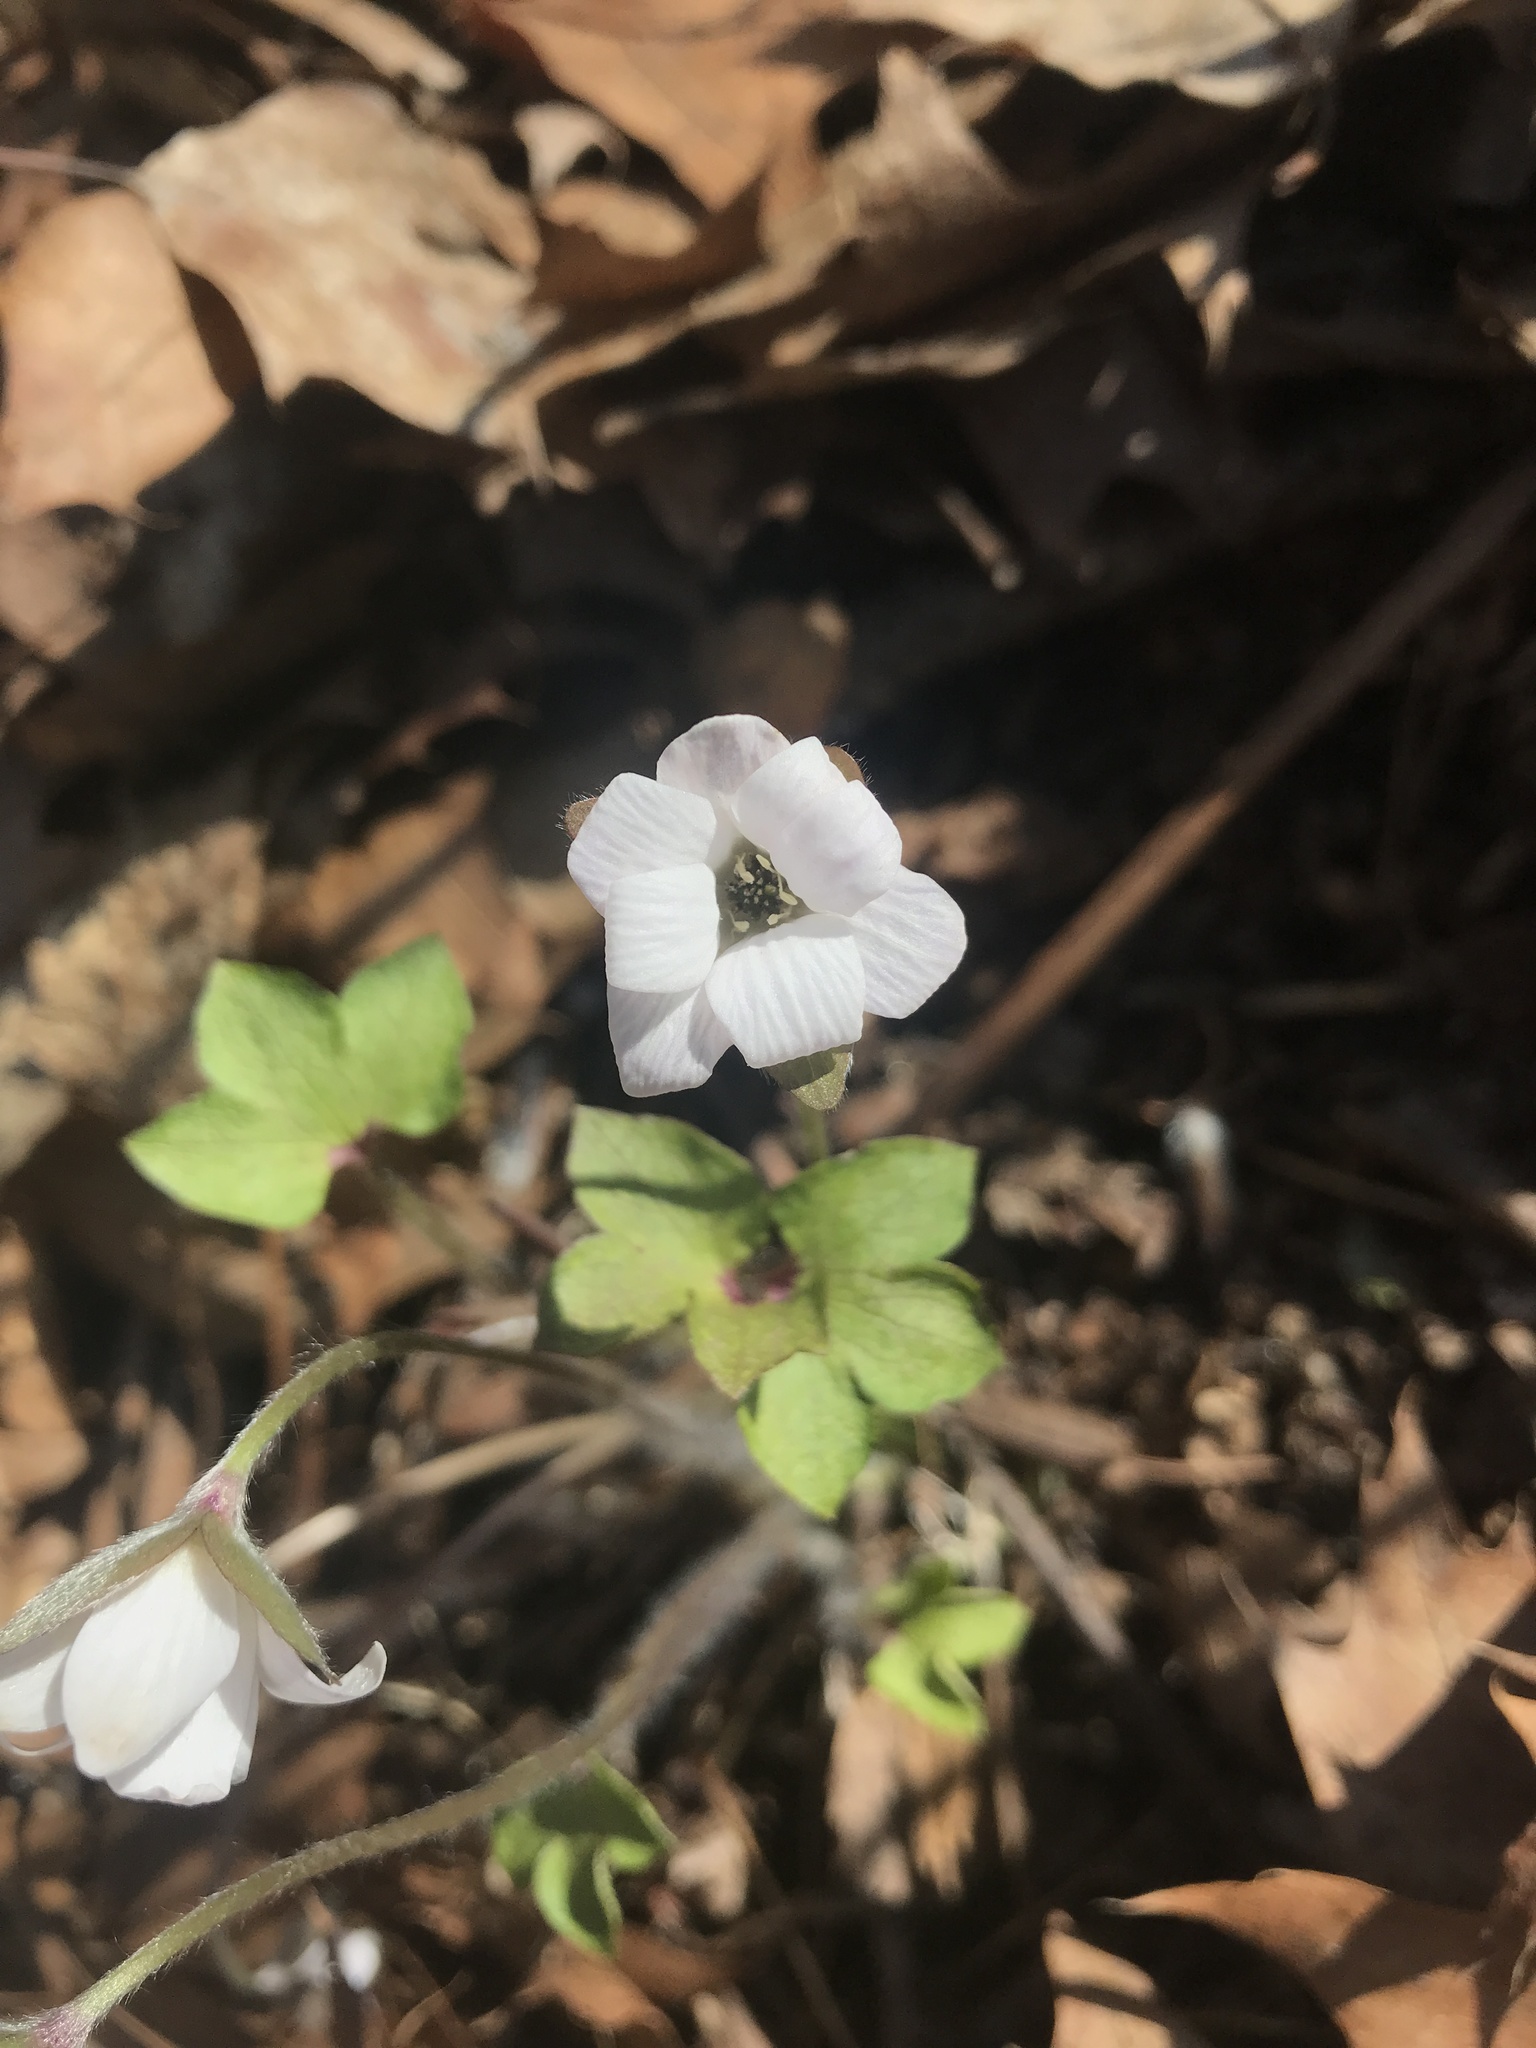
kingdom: Plantae
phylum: Tracheophyta
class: Magnoliopsida
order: Ranunculales
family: Ranunculaceae
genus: Hepatica
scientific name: Hepatica acutiloba
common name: Sharp-lobed hepatica
